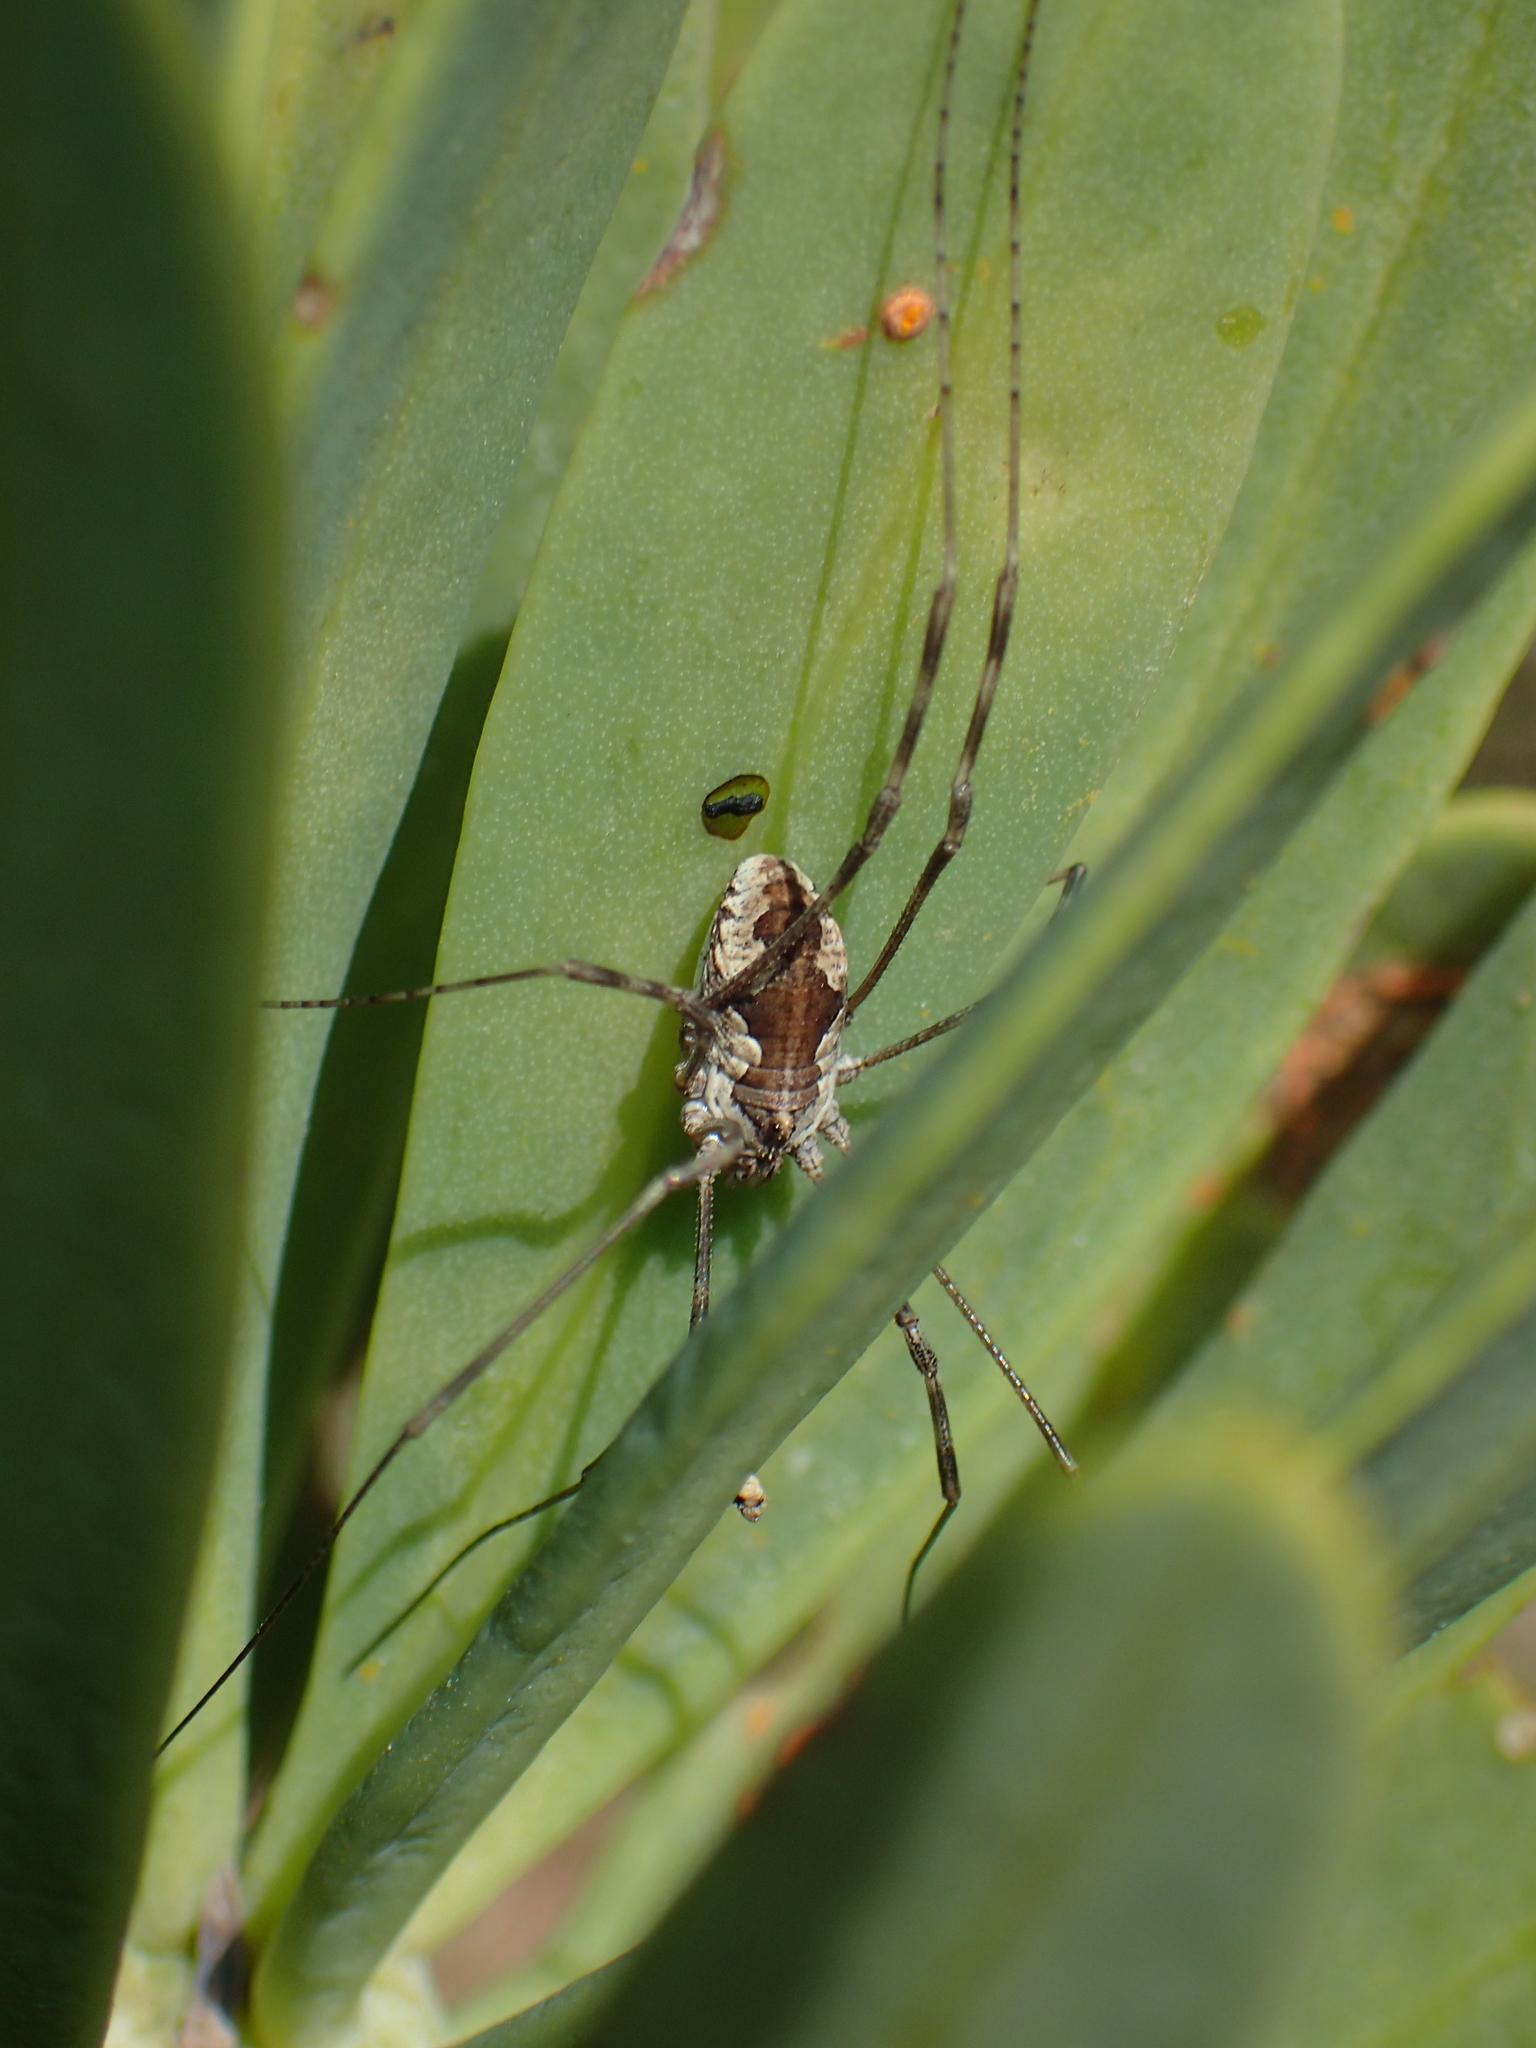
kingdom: Animalia
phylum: Arthropoda
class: Arachnida
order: Opiliones
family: Phalangiidae
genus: Bunochelis
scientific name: Bunochelis spinifera
